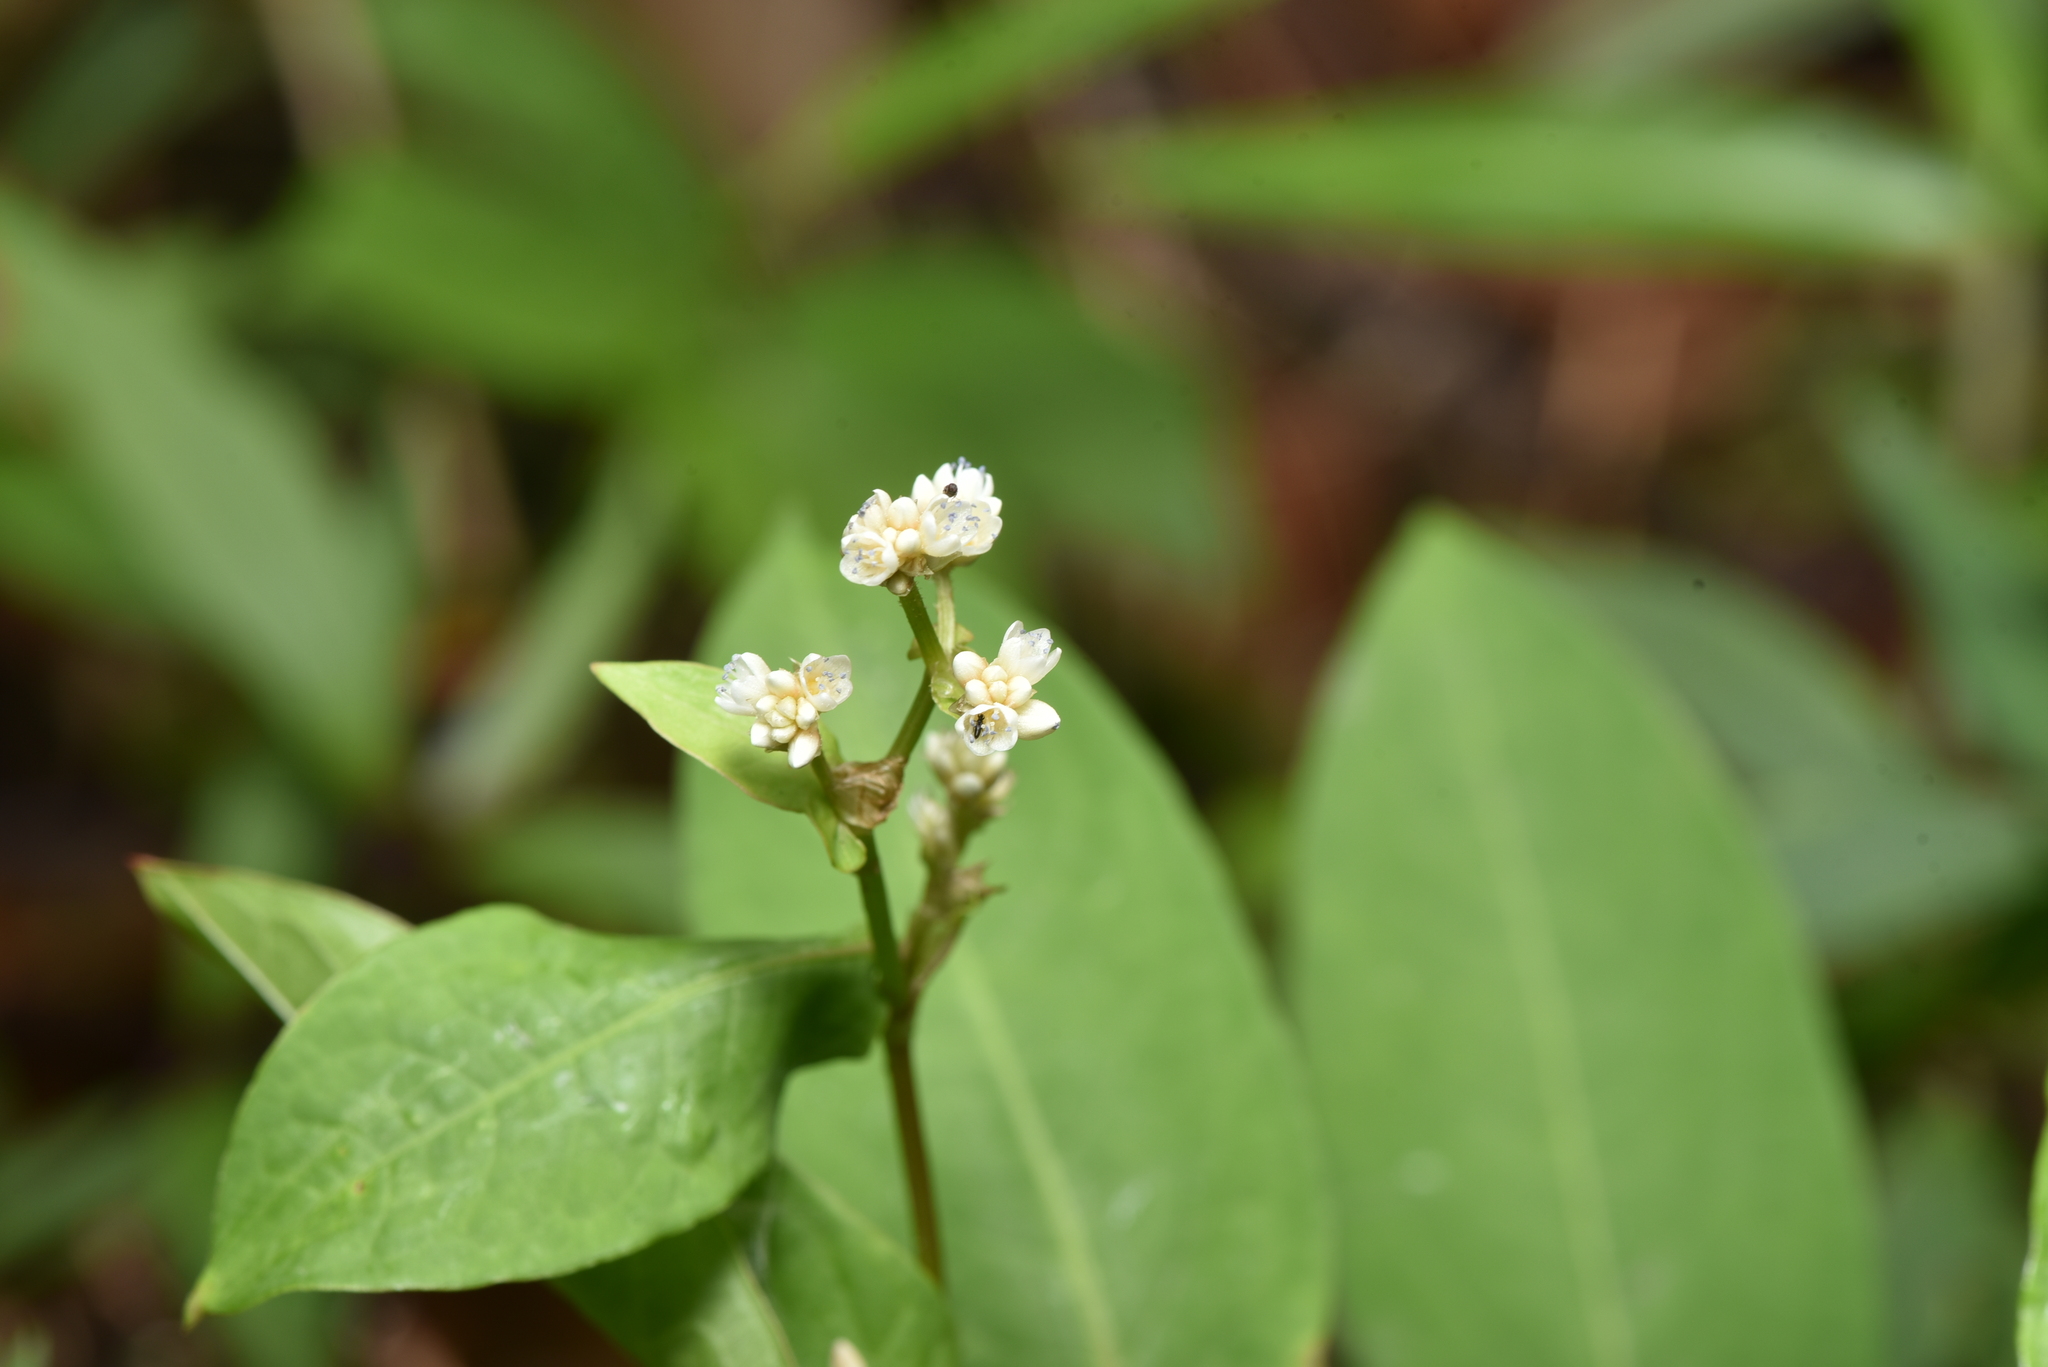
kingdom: Plantae
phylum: Tracheophyta
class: Magnoliopsida
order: Caryophyllales
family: Polygonaceae
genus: Persicaria
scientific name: Persicaria chinensis
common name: Chinese knotweed
